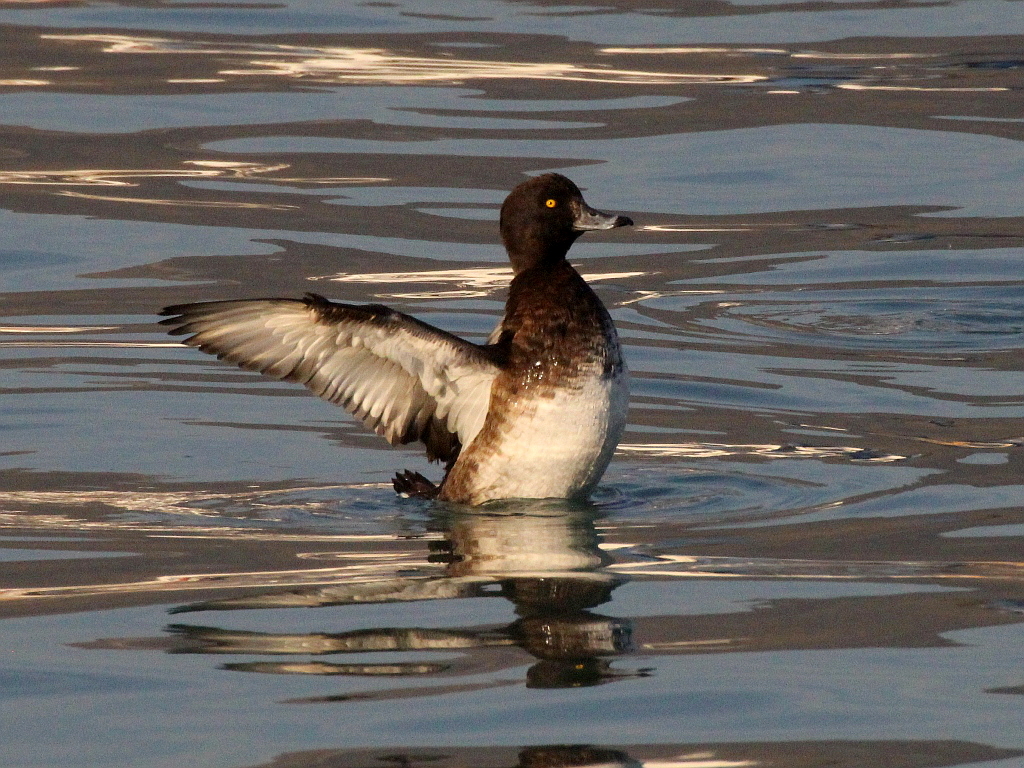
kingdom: Animalia
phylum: Chordata
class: Aves
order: Anseriformes
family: Anatidae
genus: Aythya
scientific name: Aythya fuligula
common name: Tufted duck
